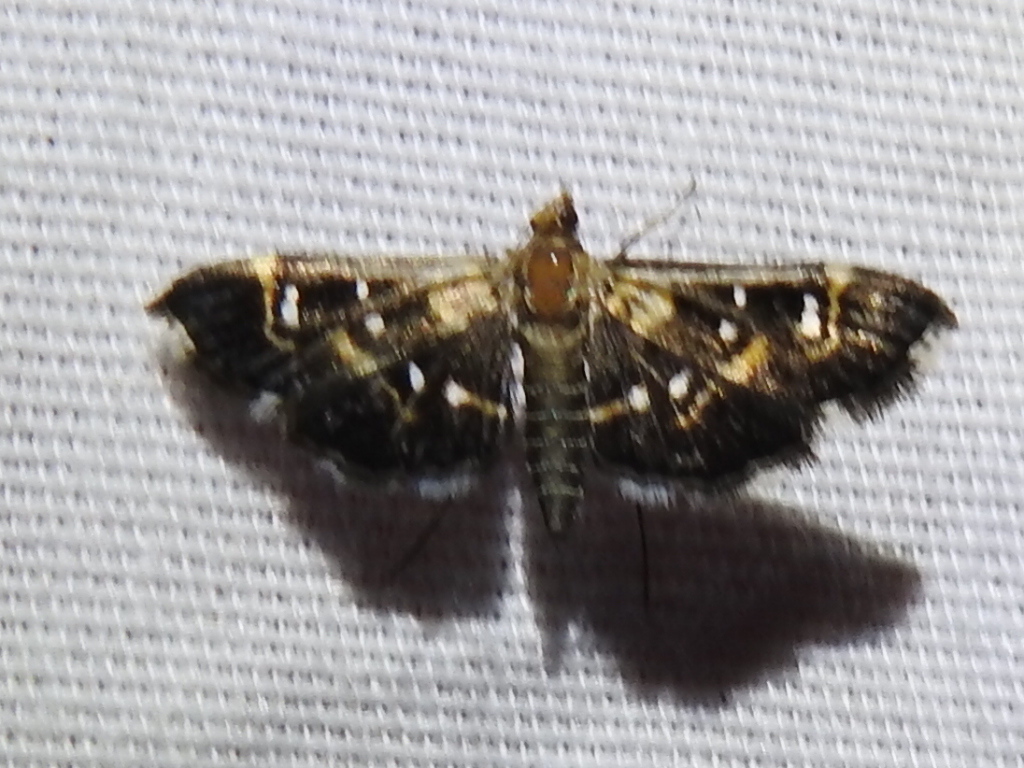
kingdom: Animalia
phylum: Arthropoda
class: Insecta
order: Lepidoptera
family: Crambidae
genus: Diathrausta
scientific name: Diathrausta harlequinalis
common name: Harlequin webworm moth
